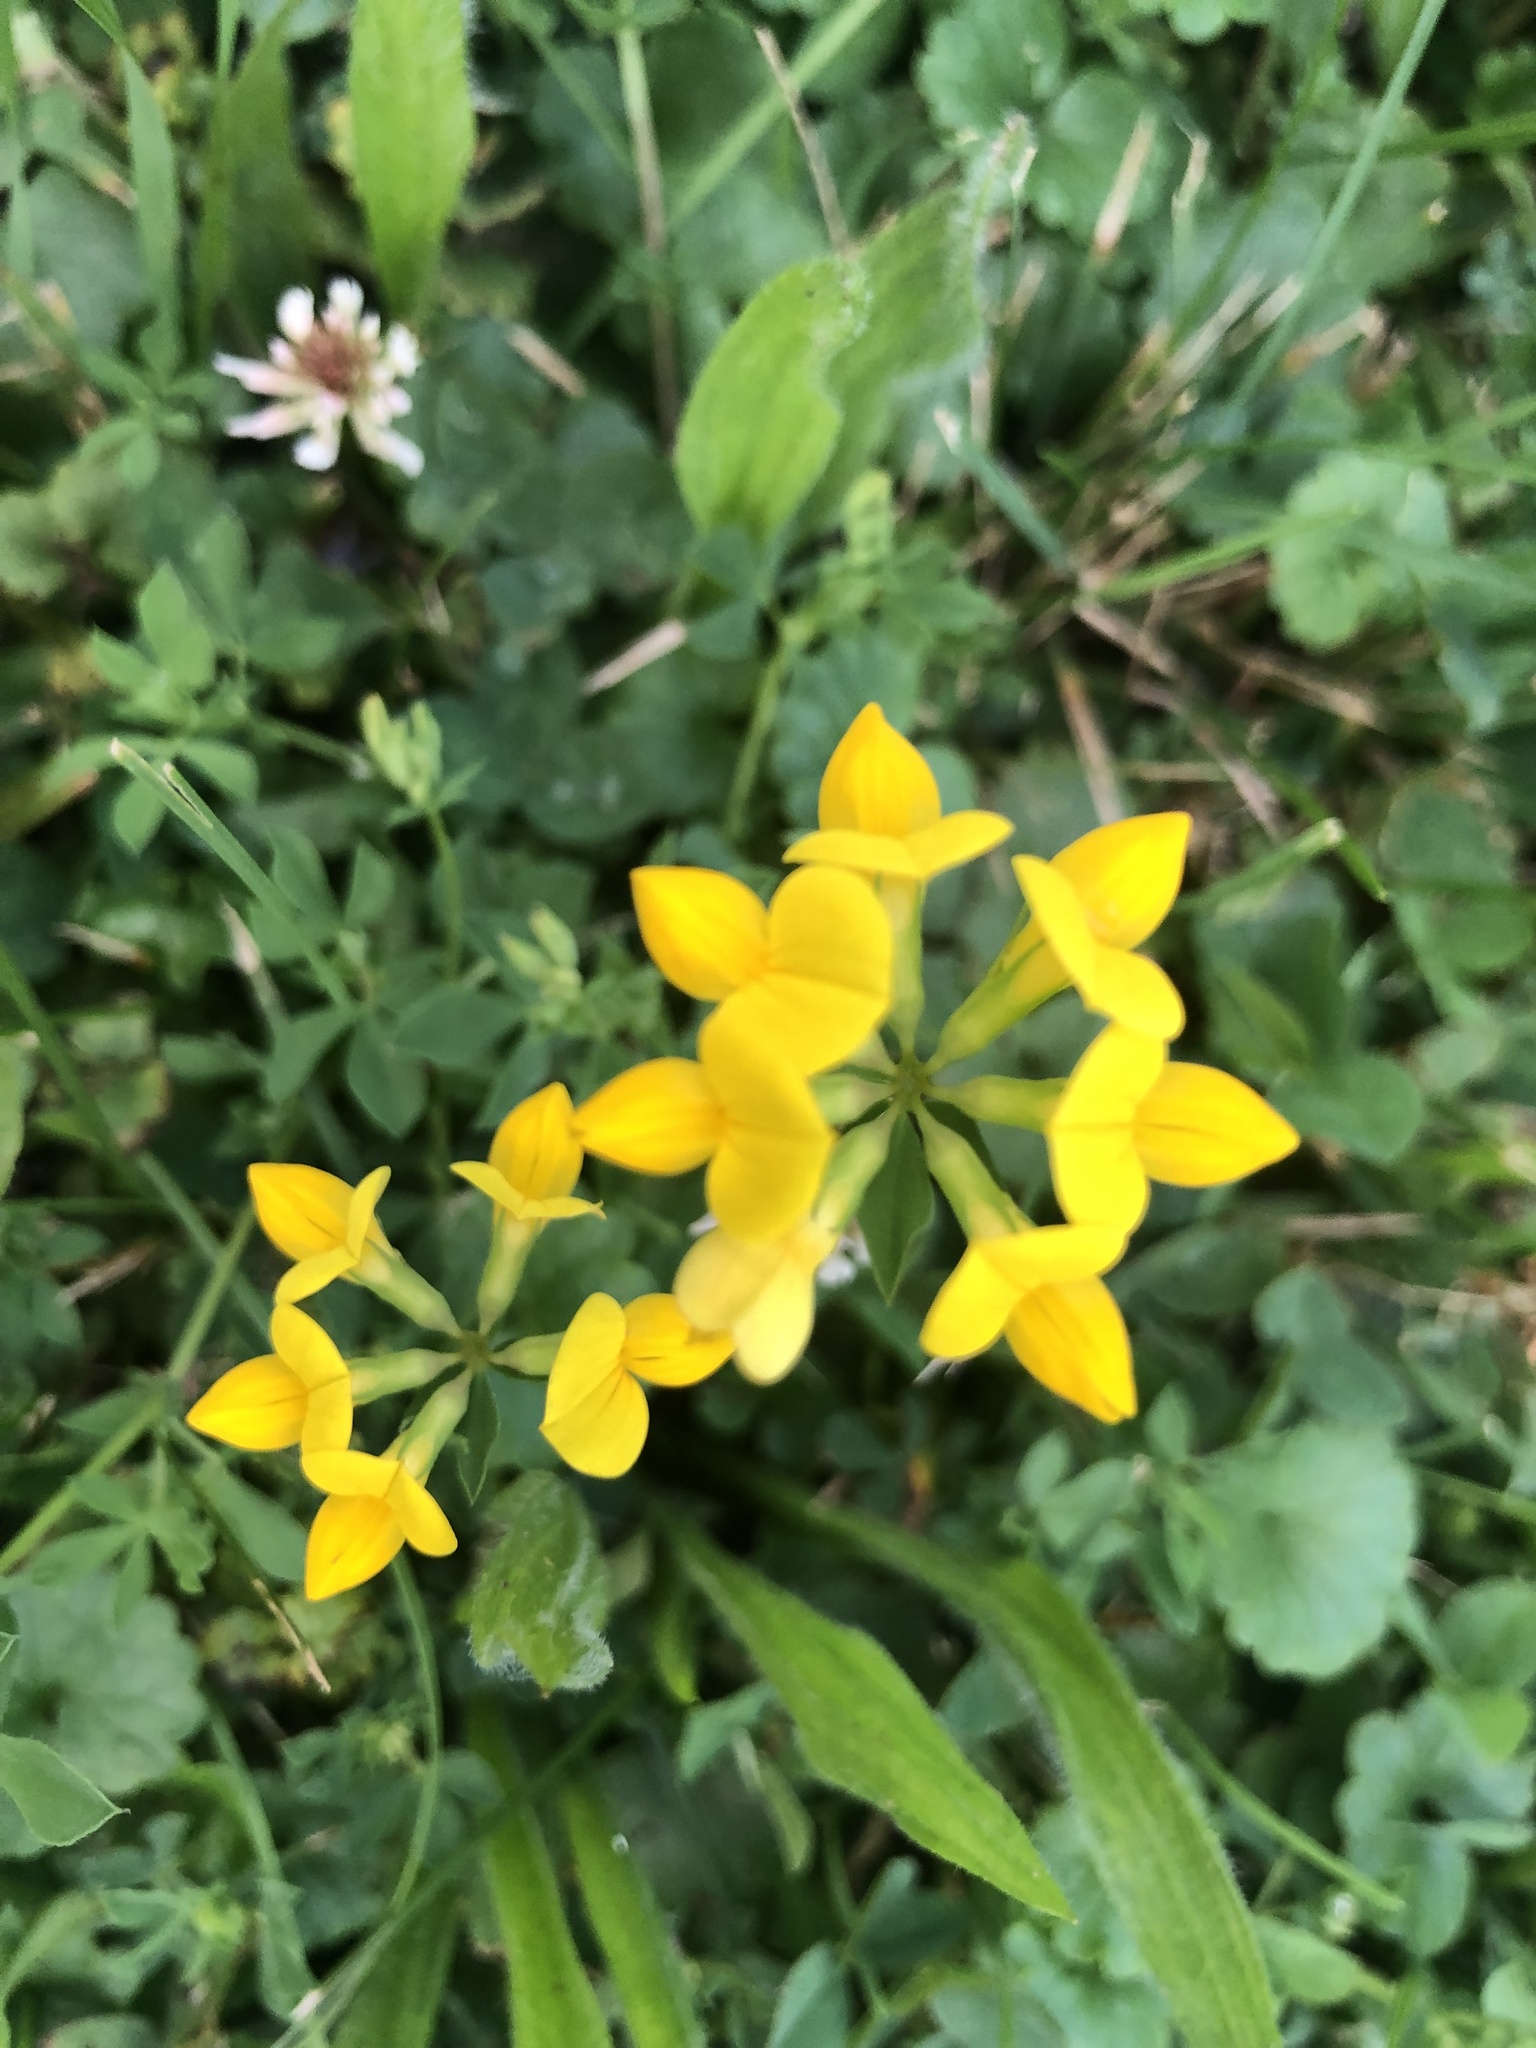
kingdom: Plantae
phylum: Tracheophyta
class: Magnoliopsida
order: Fabales
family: Fabaceae
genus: Lotus
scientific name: Lotus corniculatus
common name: Common bird's-foot-trefoil
